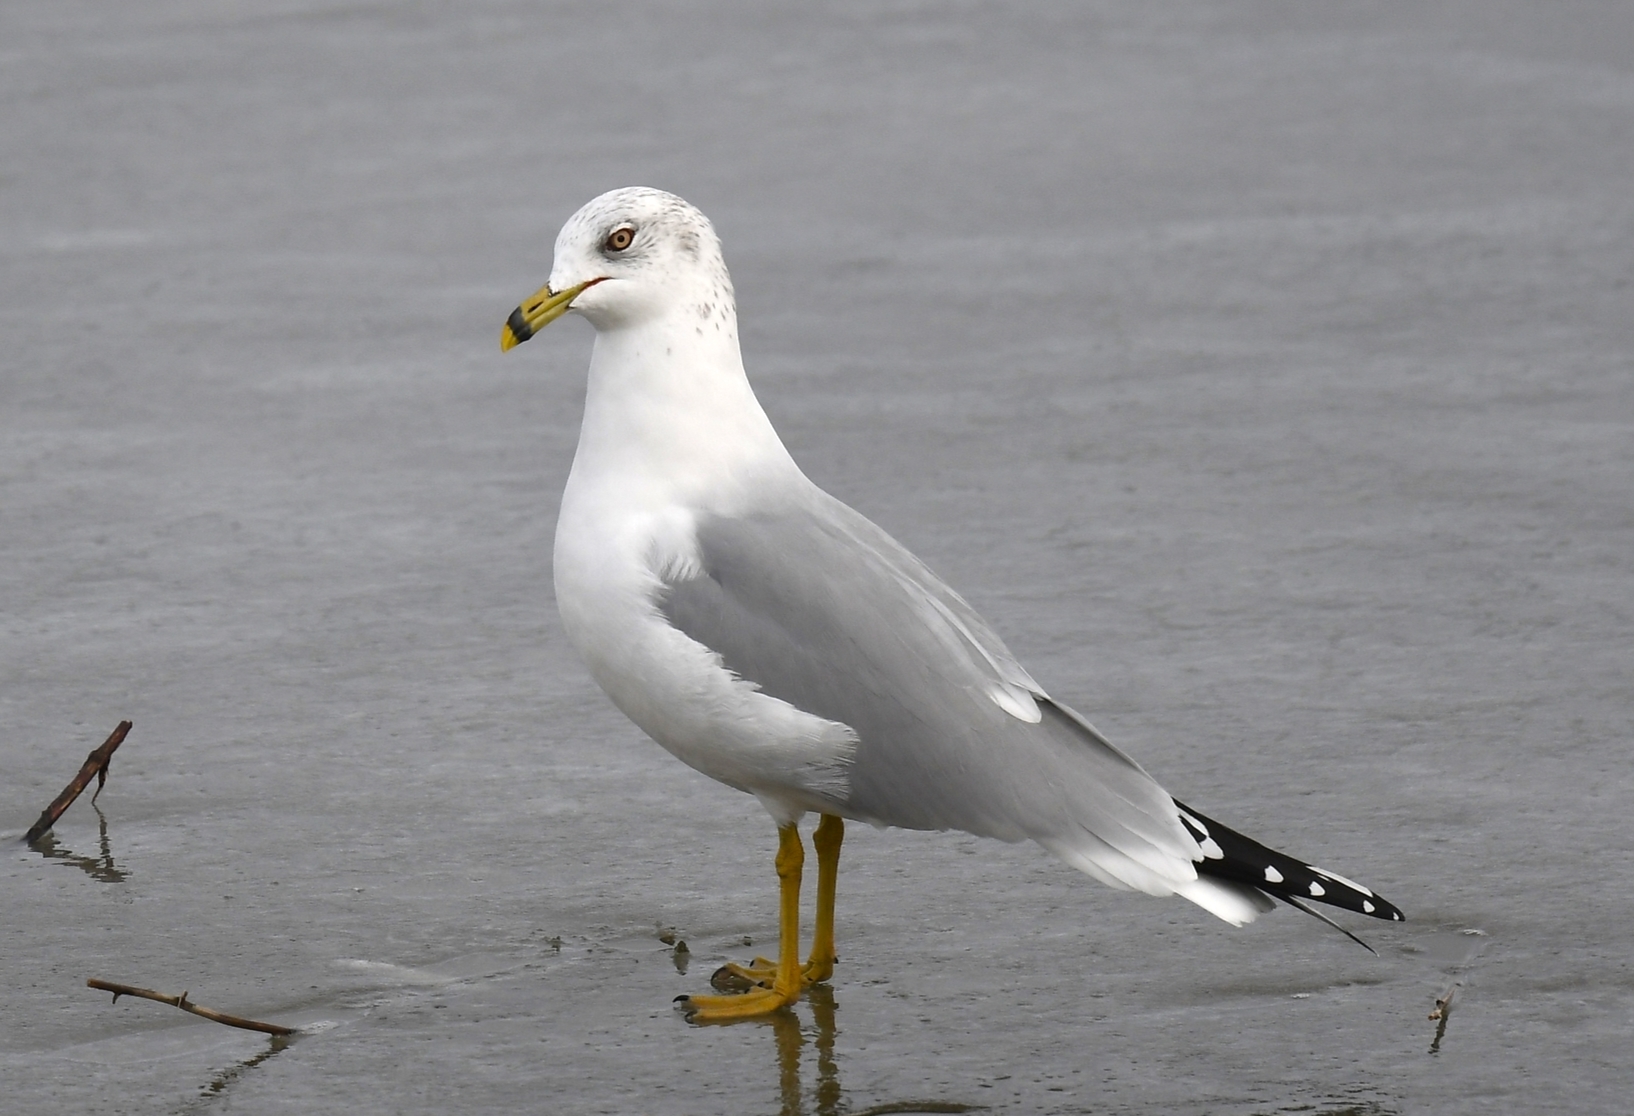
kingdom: Animalia
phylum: Chordata
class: Aves
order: Charadriiformes
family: Laridae
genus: Larus
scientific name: Larus delawarensis
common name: Ring-billed gull
